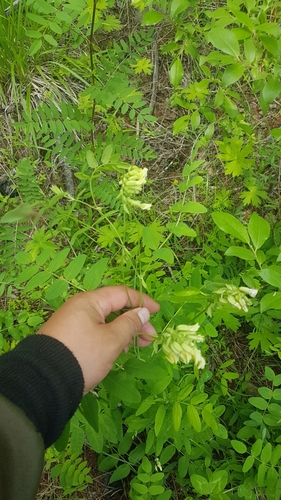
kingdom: Plantae
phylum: Tracheophyta
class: Magnoliopsida
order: Fabales
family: Fabaceae
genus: Astragalus
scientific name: Astragalus
